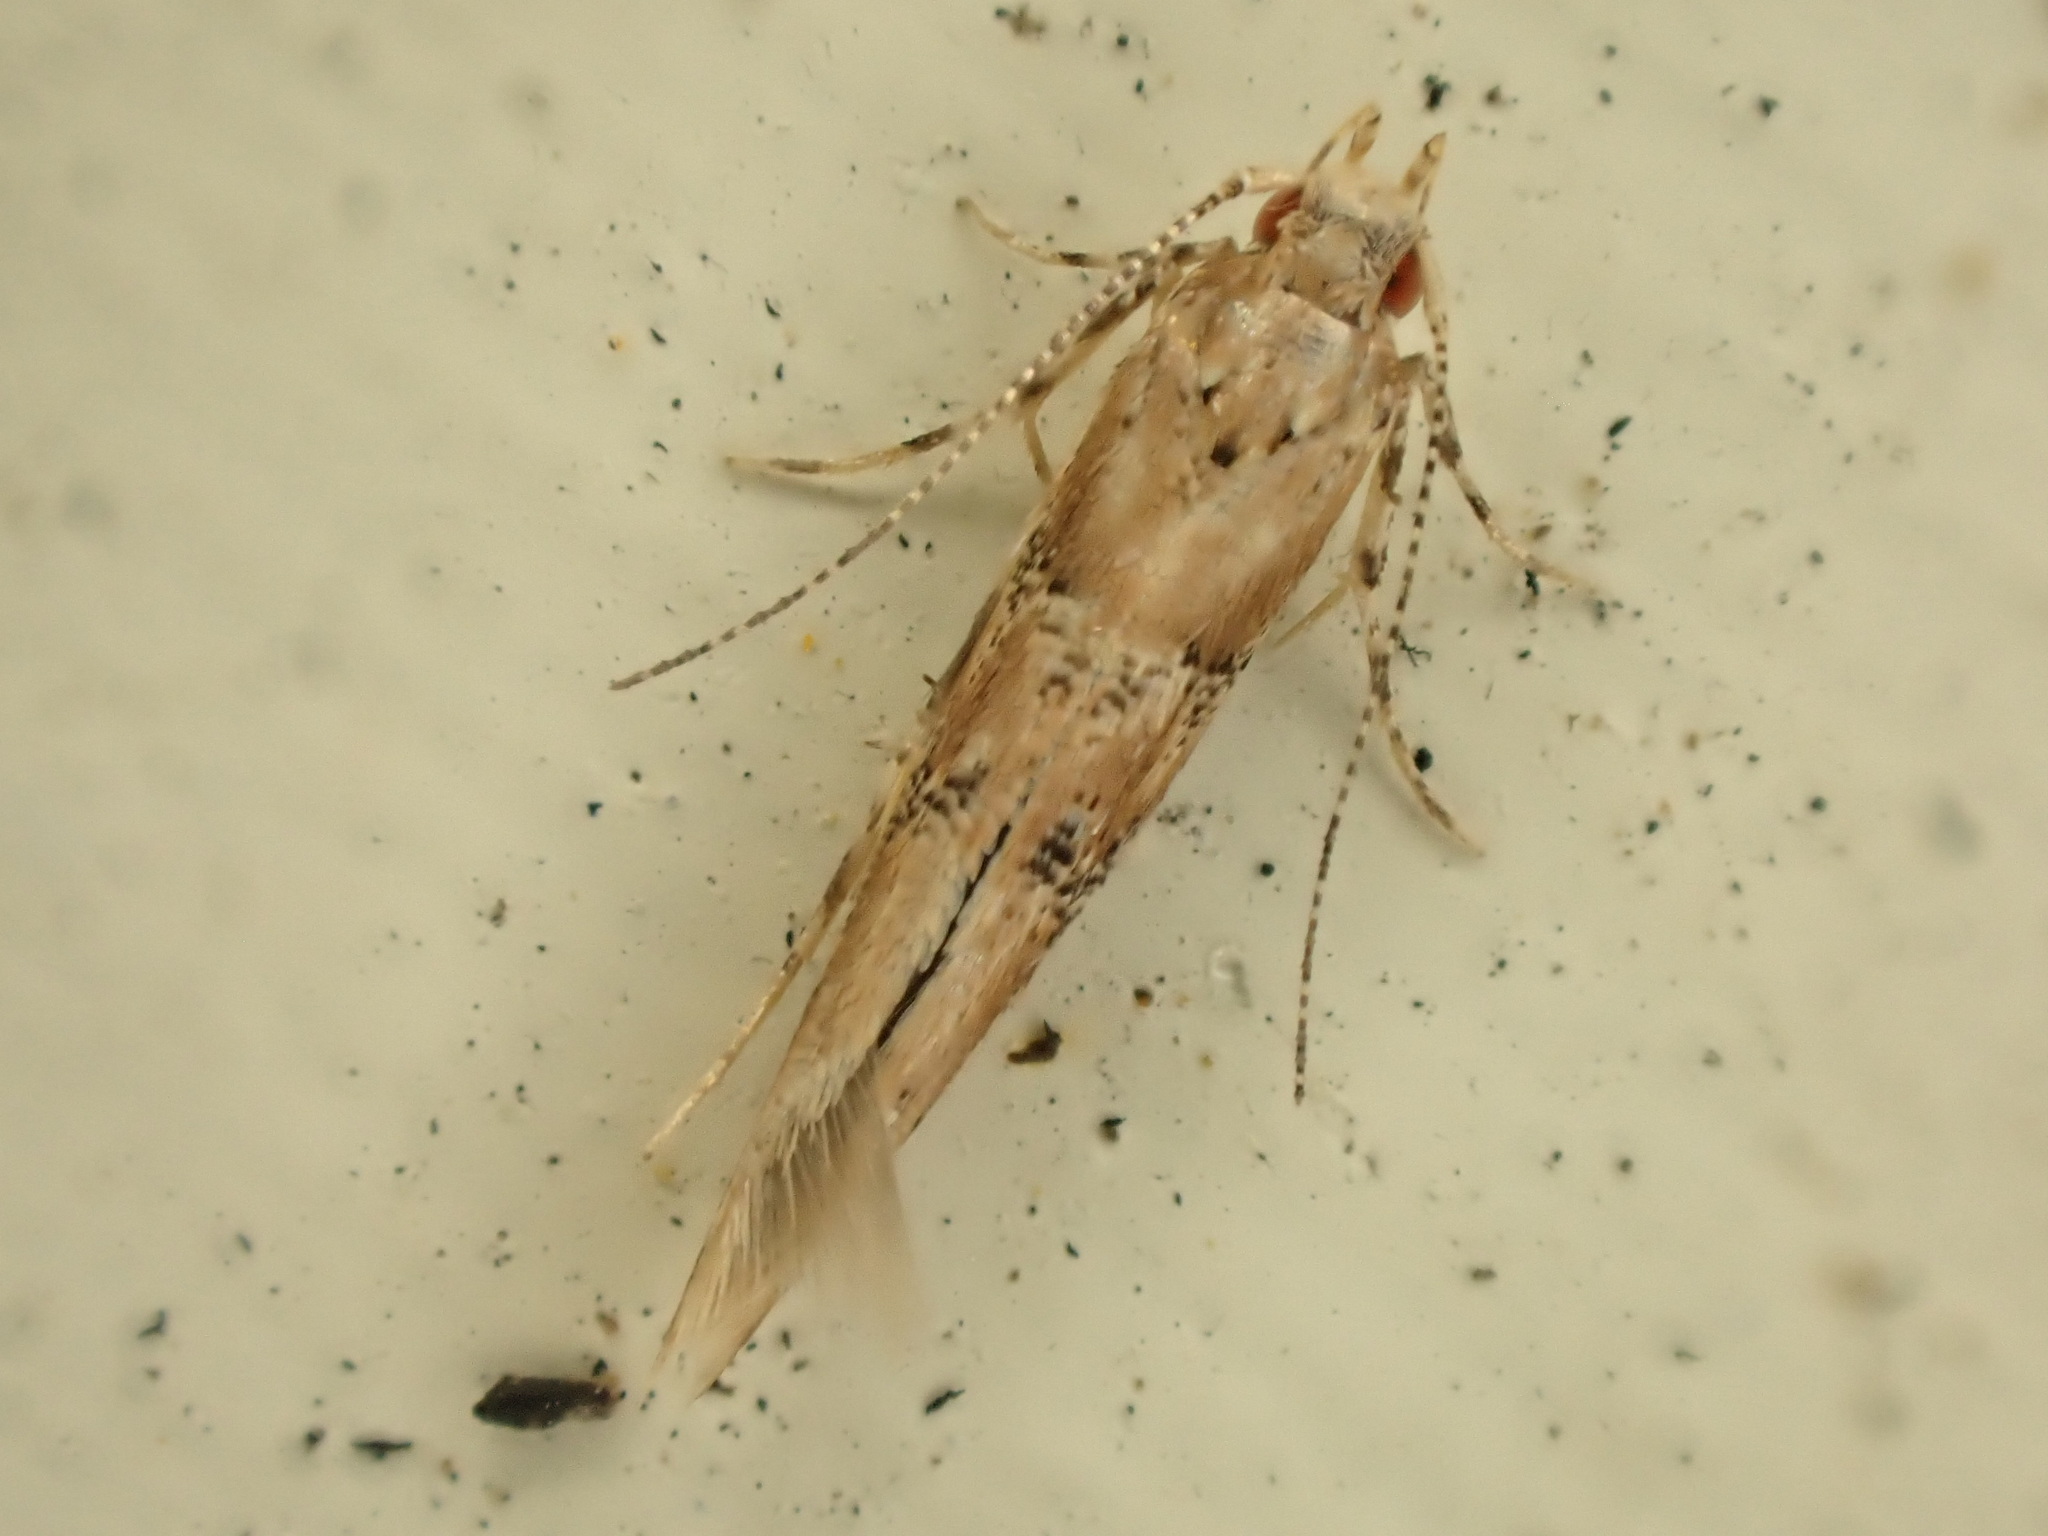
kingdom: Animalia
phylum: Arthropoda
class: Insecta
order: Lepidoptera
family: Cosmopterigidae
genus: Pyroderces
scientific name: Pyroderces aellotricha
